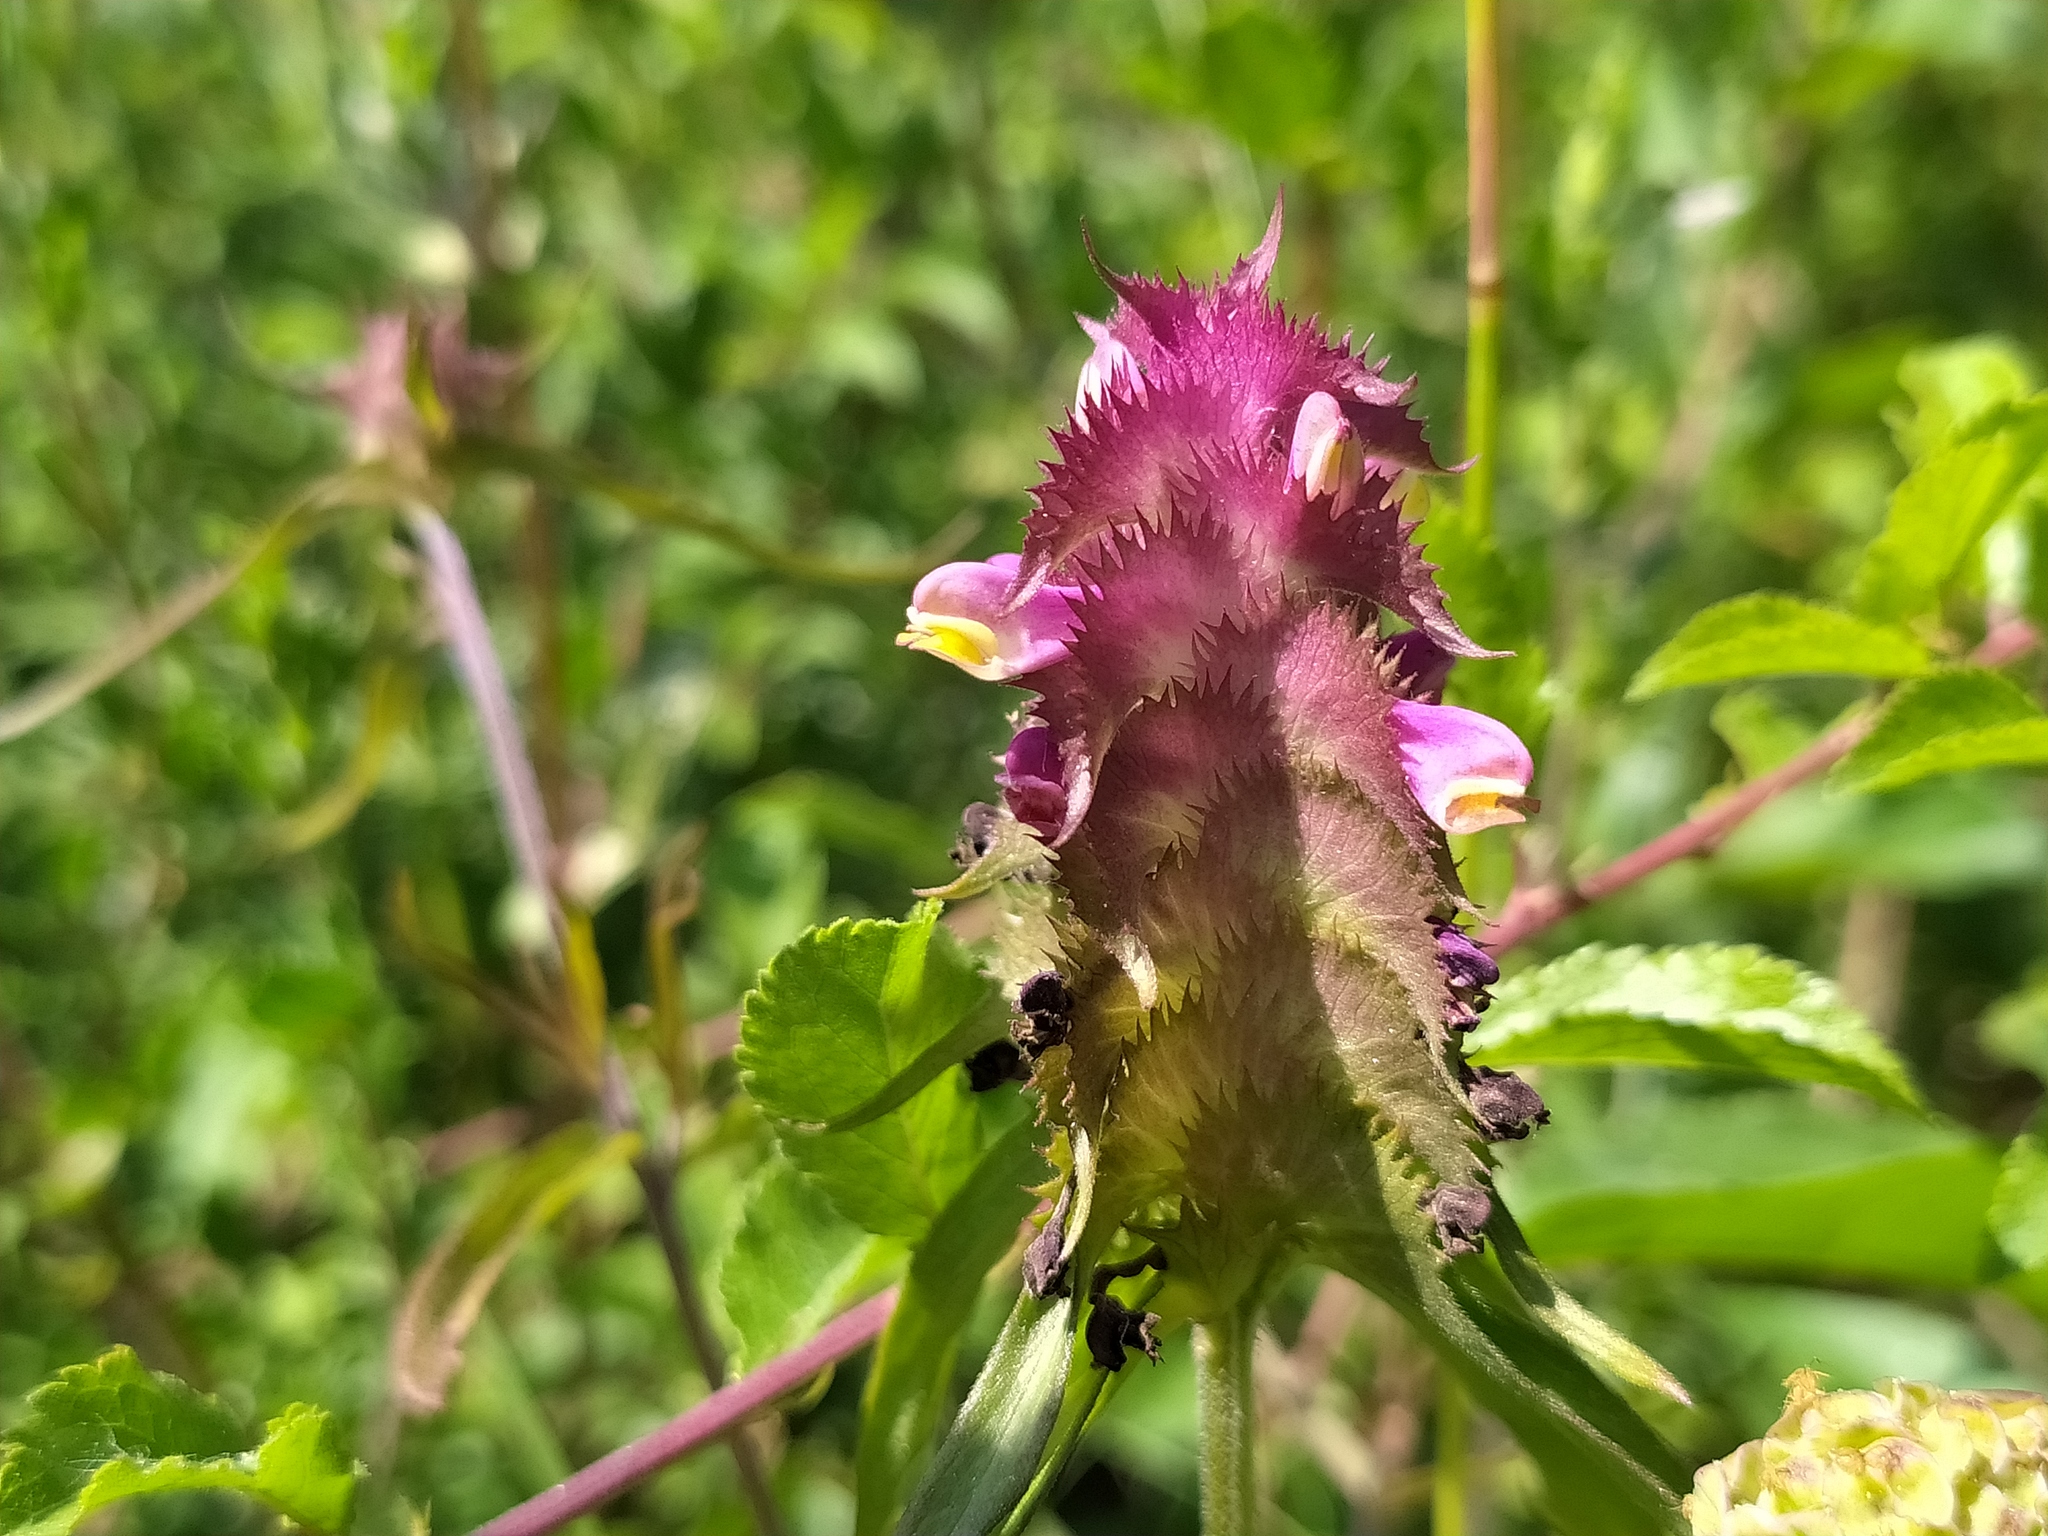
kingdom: Plantae
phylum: Tracheophyta
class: Magnoliopsida
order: Lamiales
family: Orobanchaceae
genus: Melampyrum
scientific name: Melampyrum cristatum
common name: Crested cow-wheat
